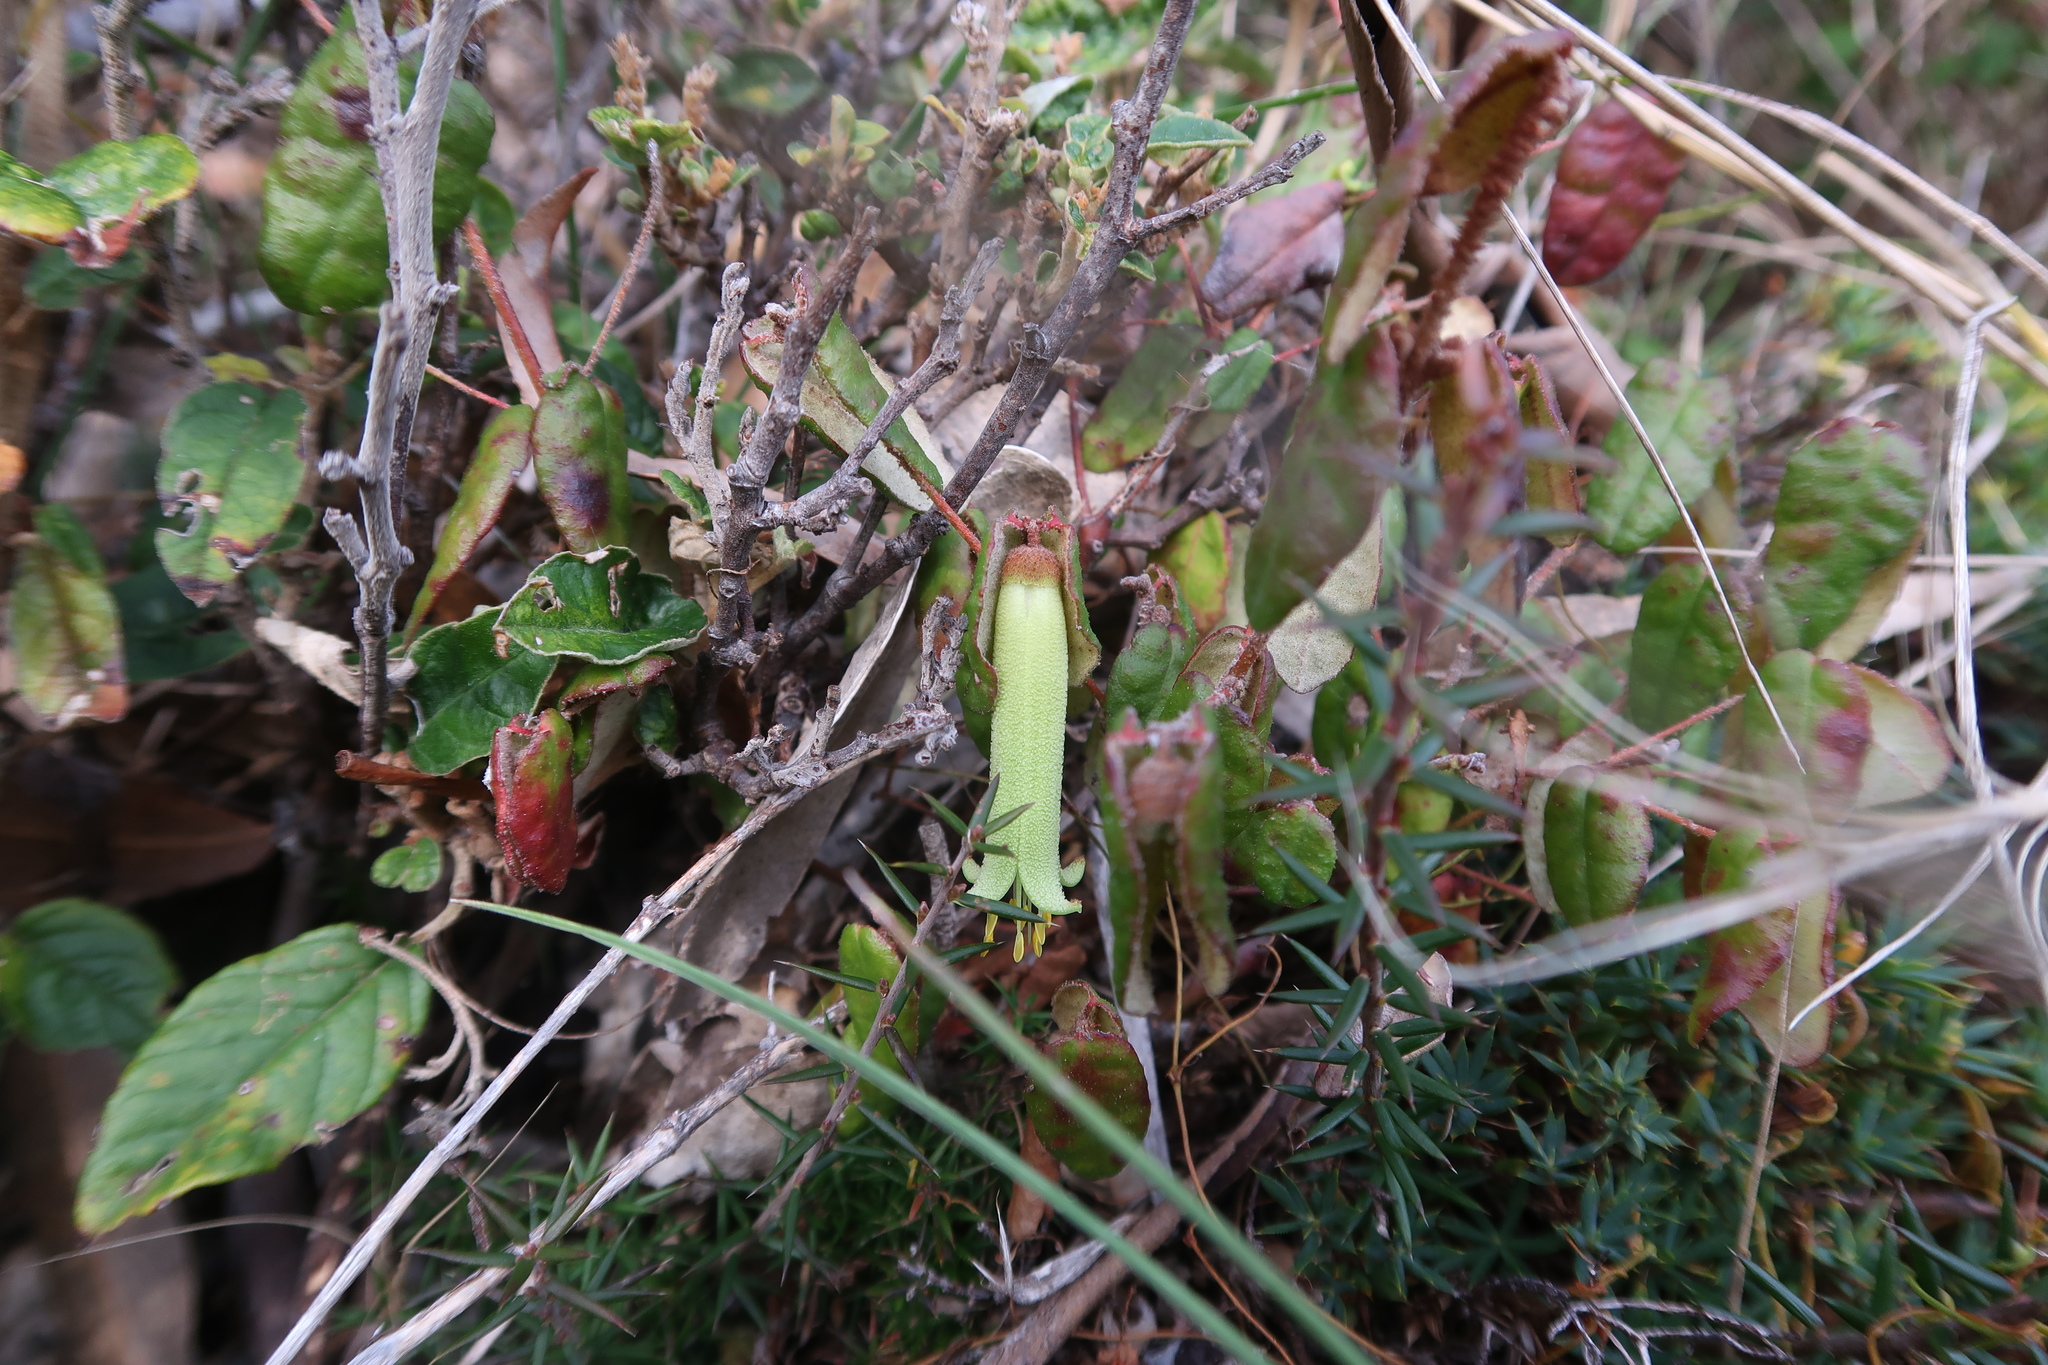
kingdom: Plantae
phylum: Tracheophyta
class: Magnoliopsida
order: Sapindales
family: Rutaceae
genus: Correa
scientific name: Correa reflexa
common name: Common correa
